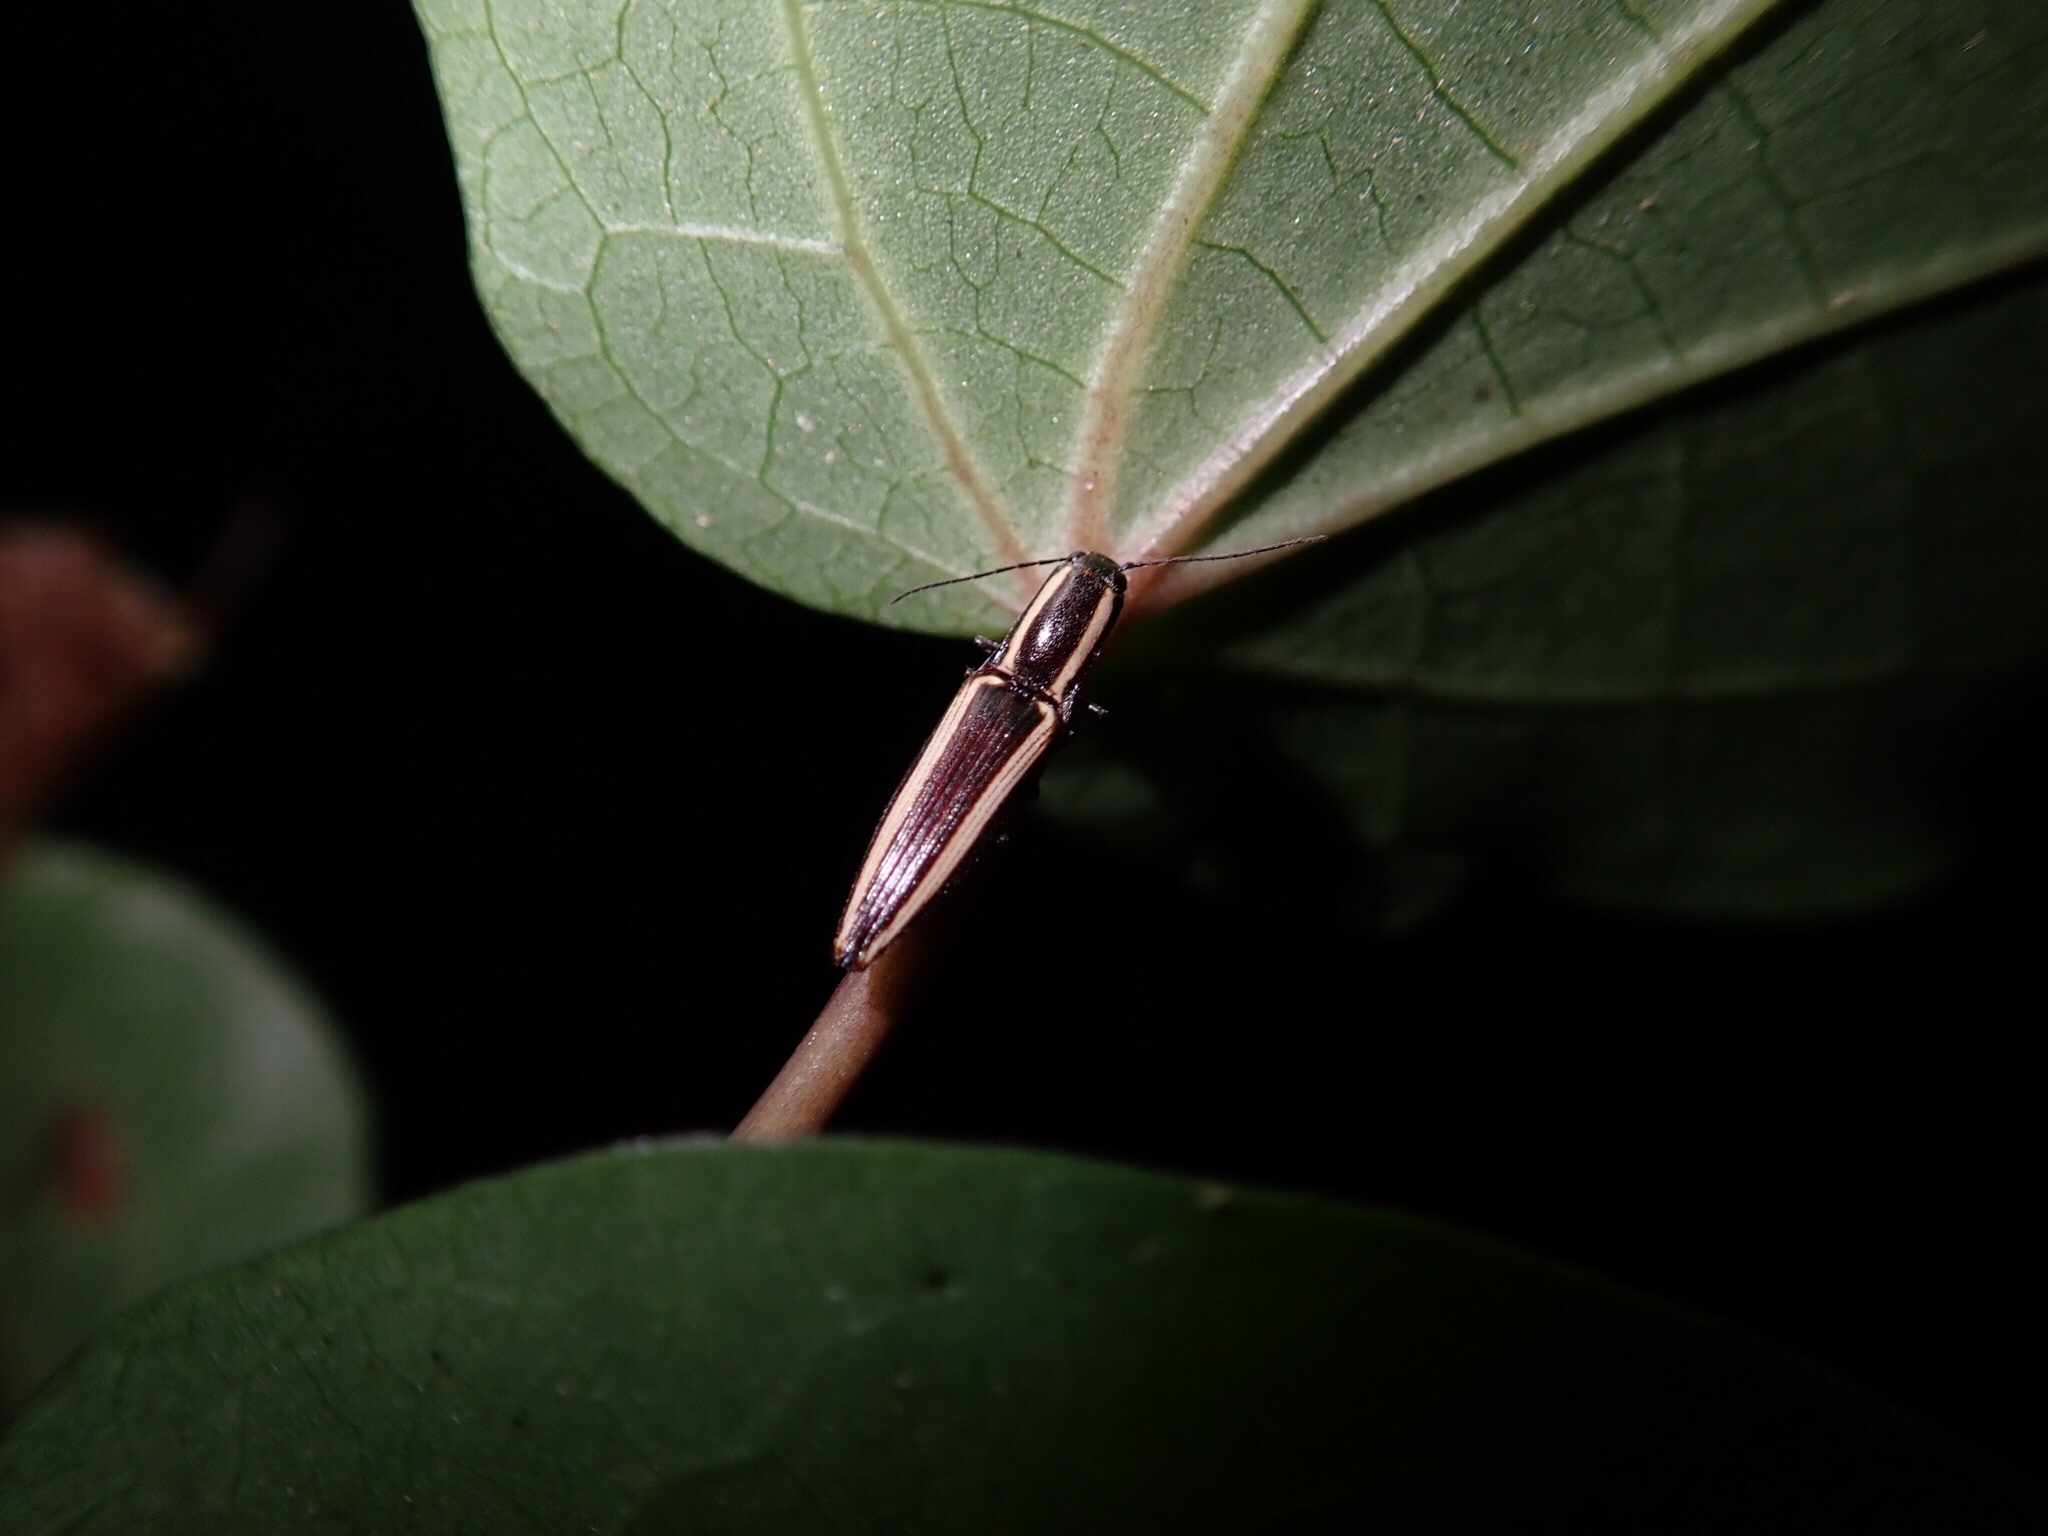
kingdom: Animalia
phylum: Arthropoda
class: Insecta
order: Coleoptera
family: Elateridae
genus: Metablax
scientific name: Metablax
